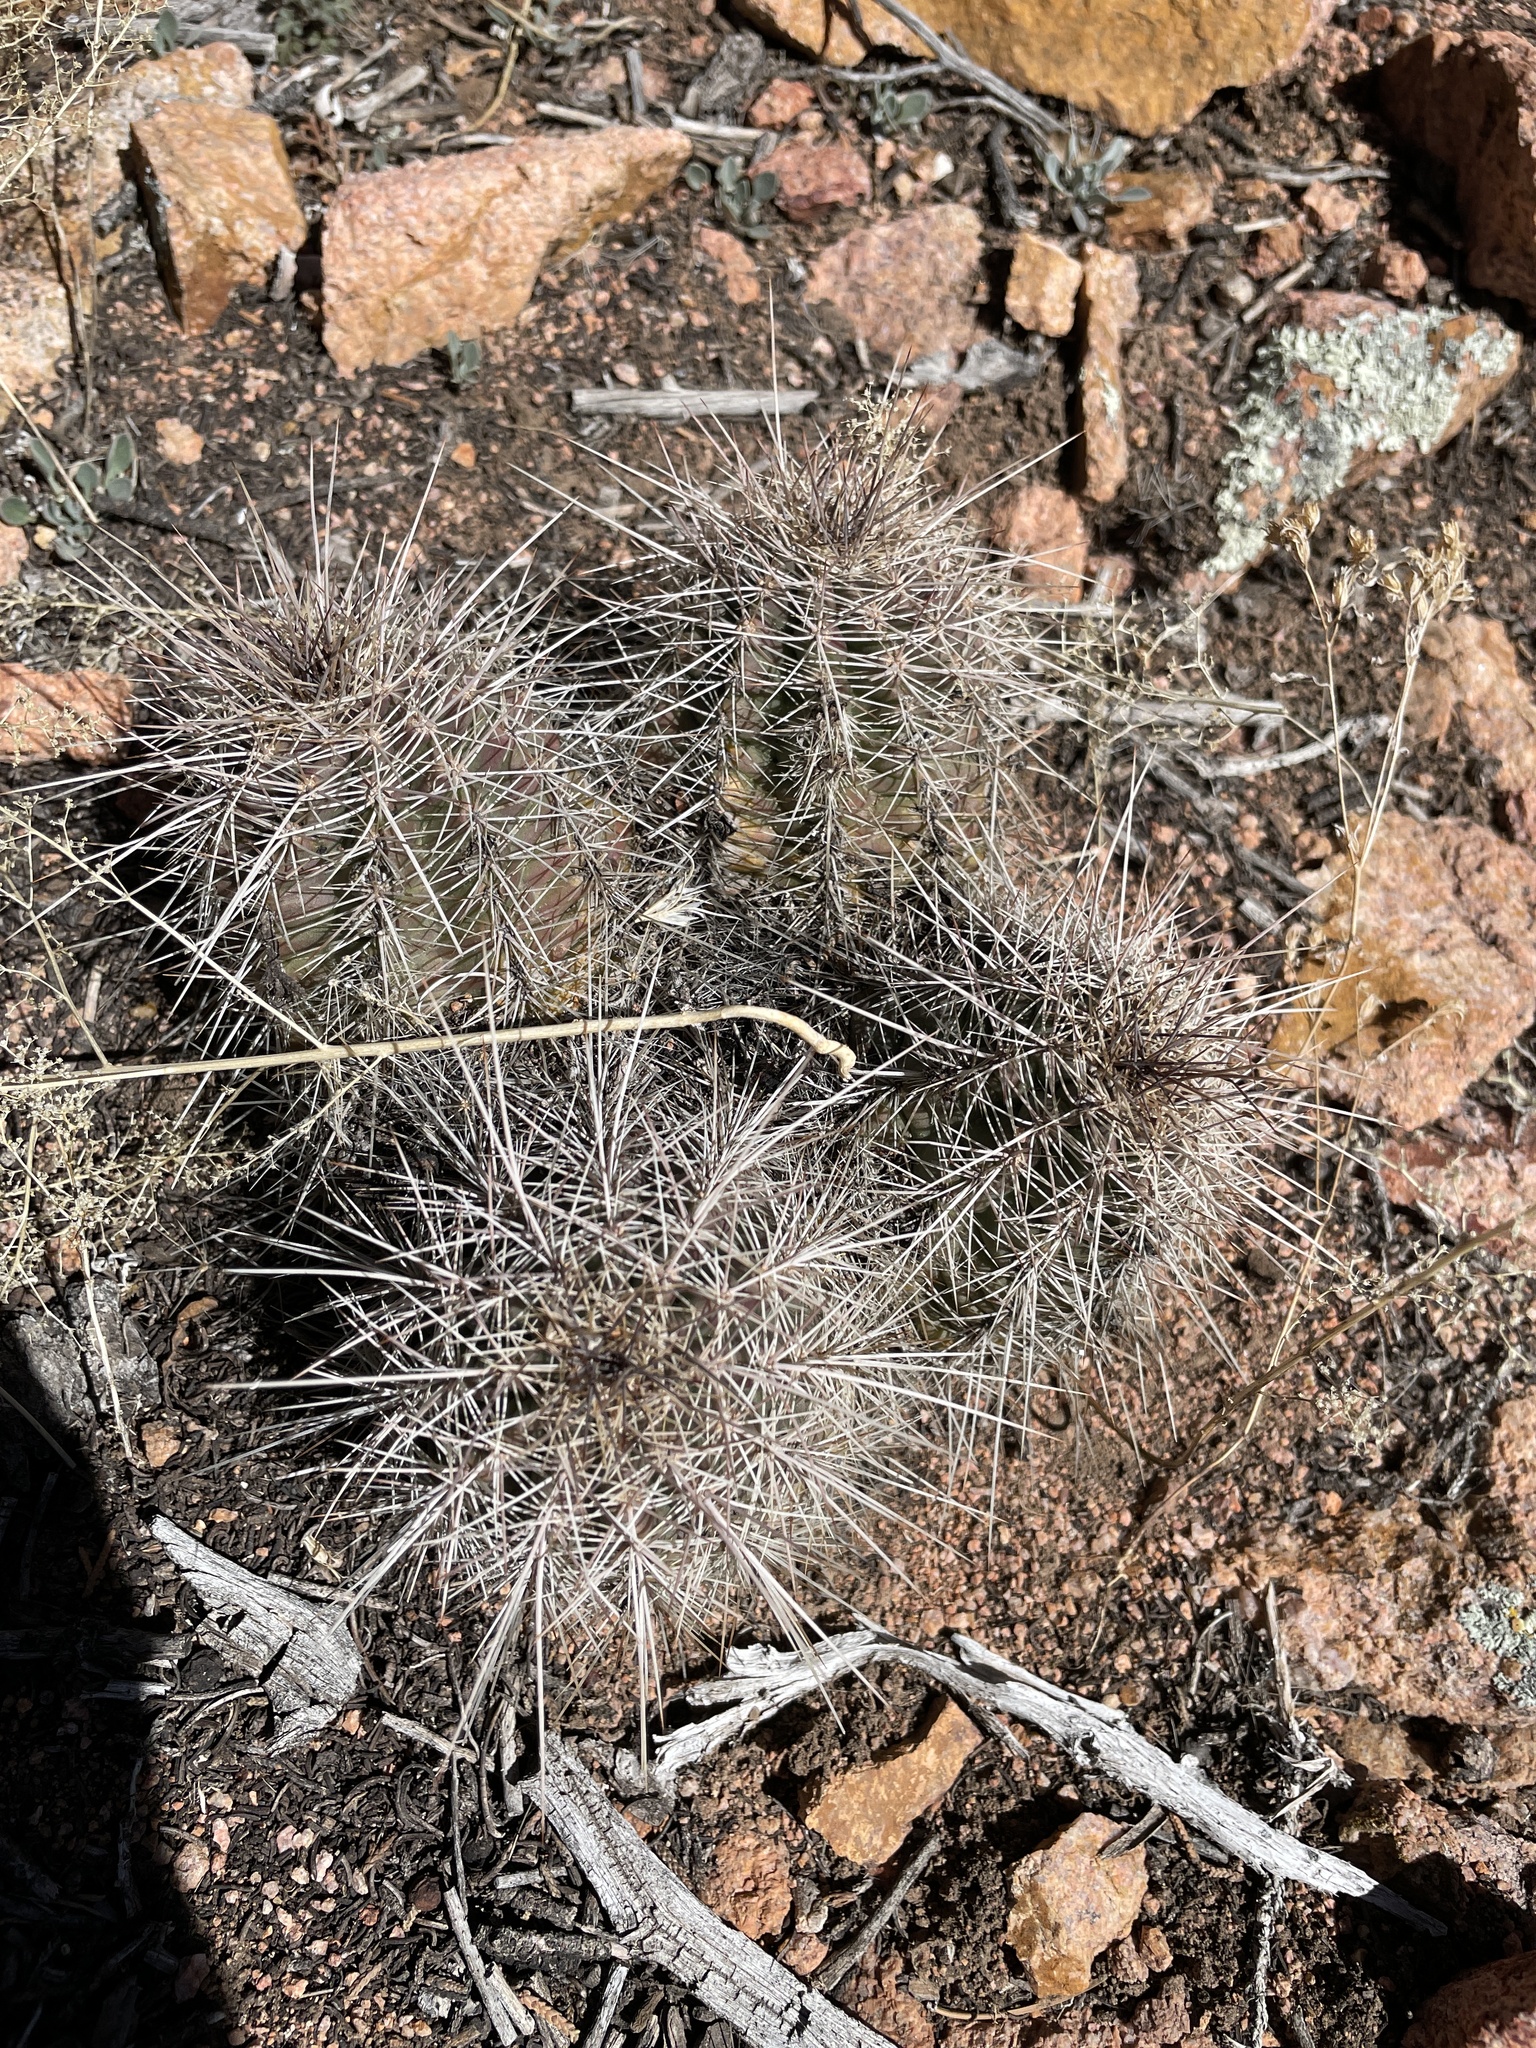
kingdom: Plantae
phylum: Tracheophyta
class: Magnoliopsida
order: Caryophyllales
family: Cactaceae
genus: Echinocereus
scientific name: Echinocereus coccineus
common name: Scarlet hedgehog cactus
